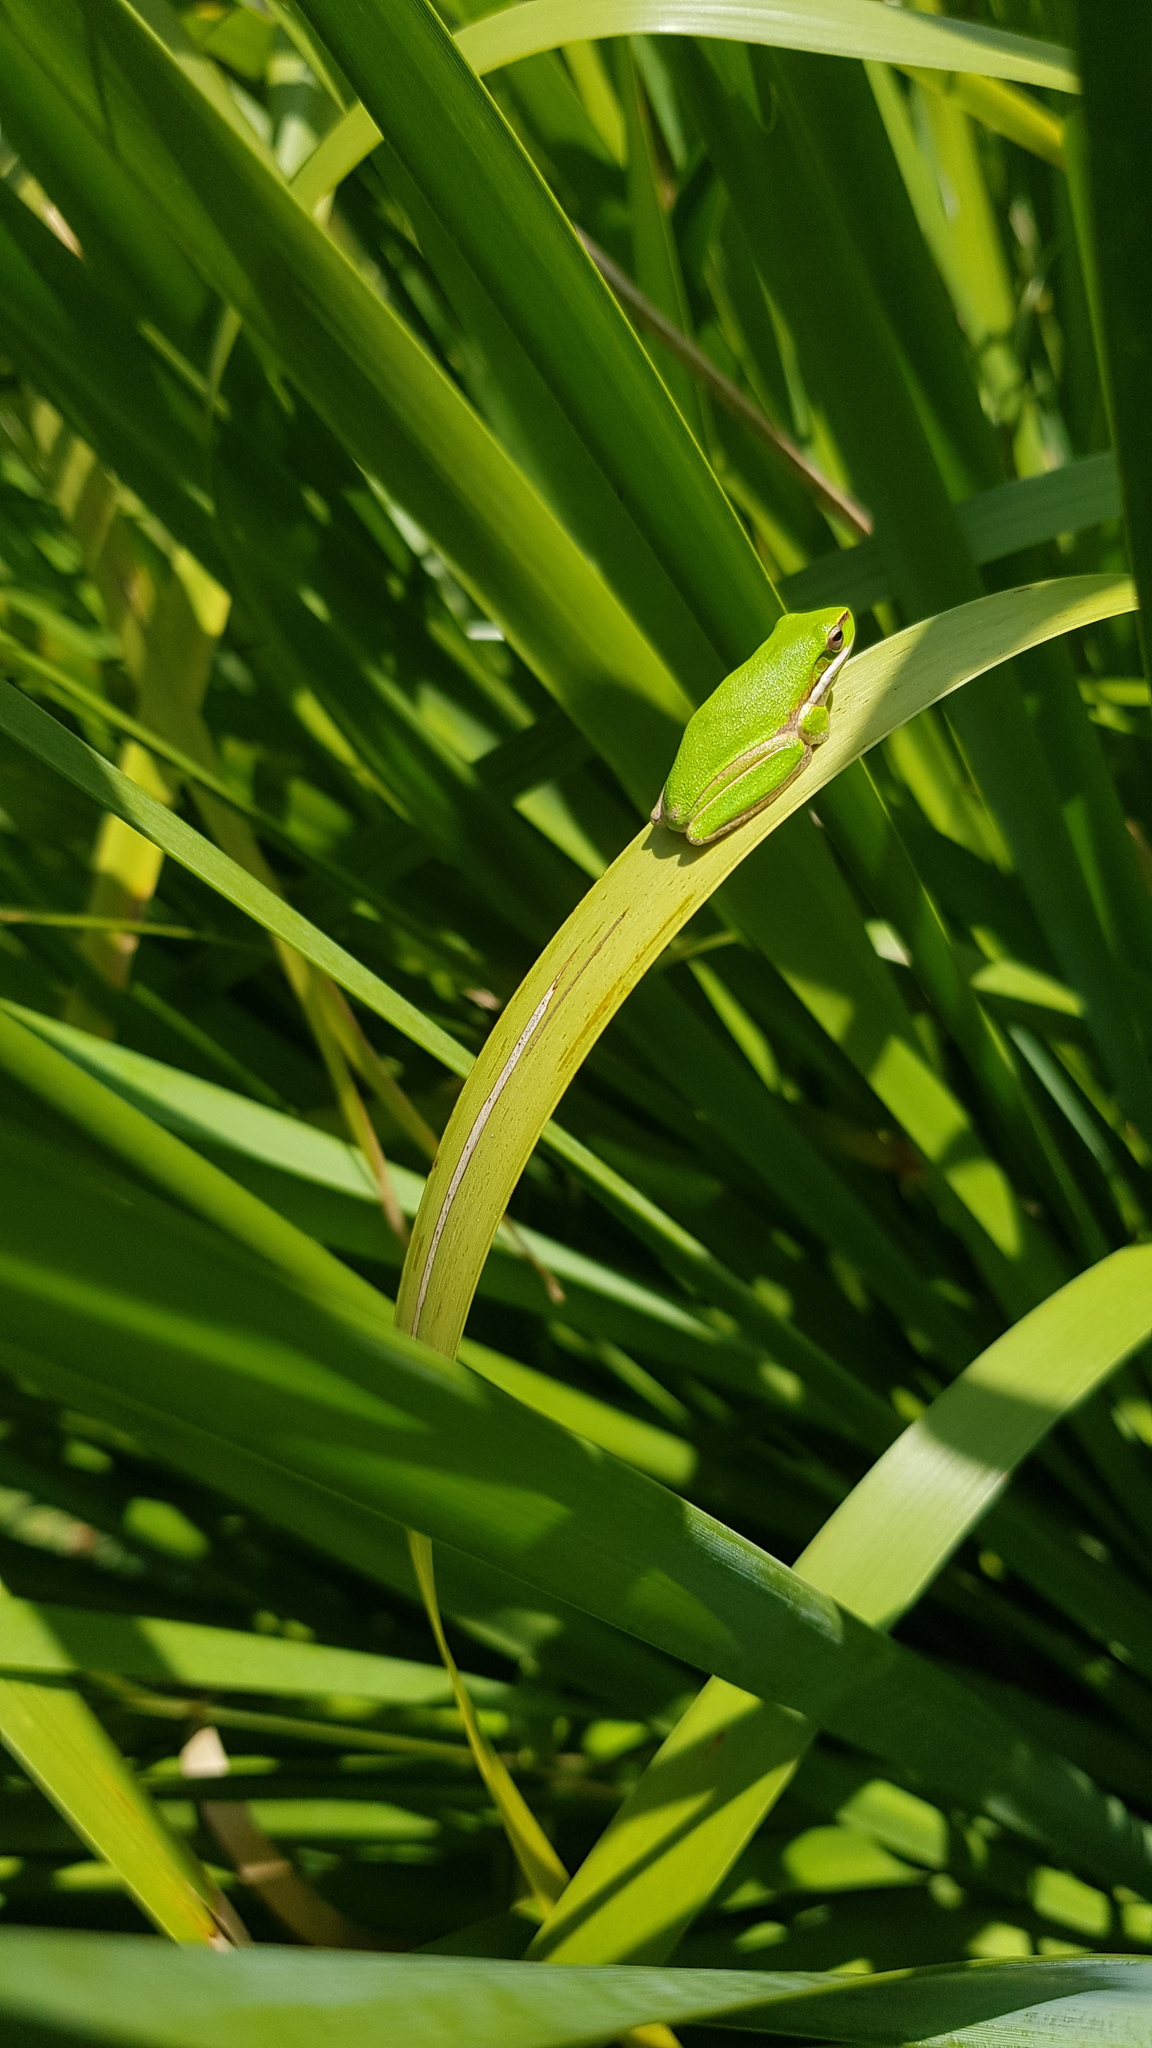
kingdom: Animalia
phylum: Chordata
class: Amphibia
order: Anura
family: Pelodryadidae
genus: Litoria
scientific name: Litoria fallax
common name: Eastern dwarf treefrog
